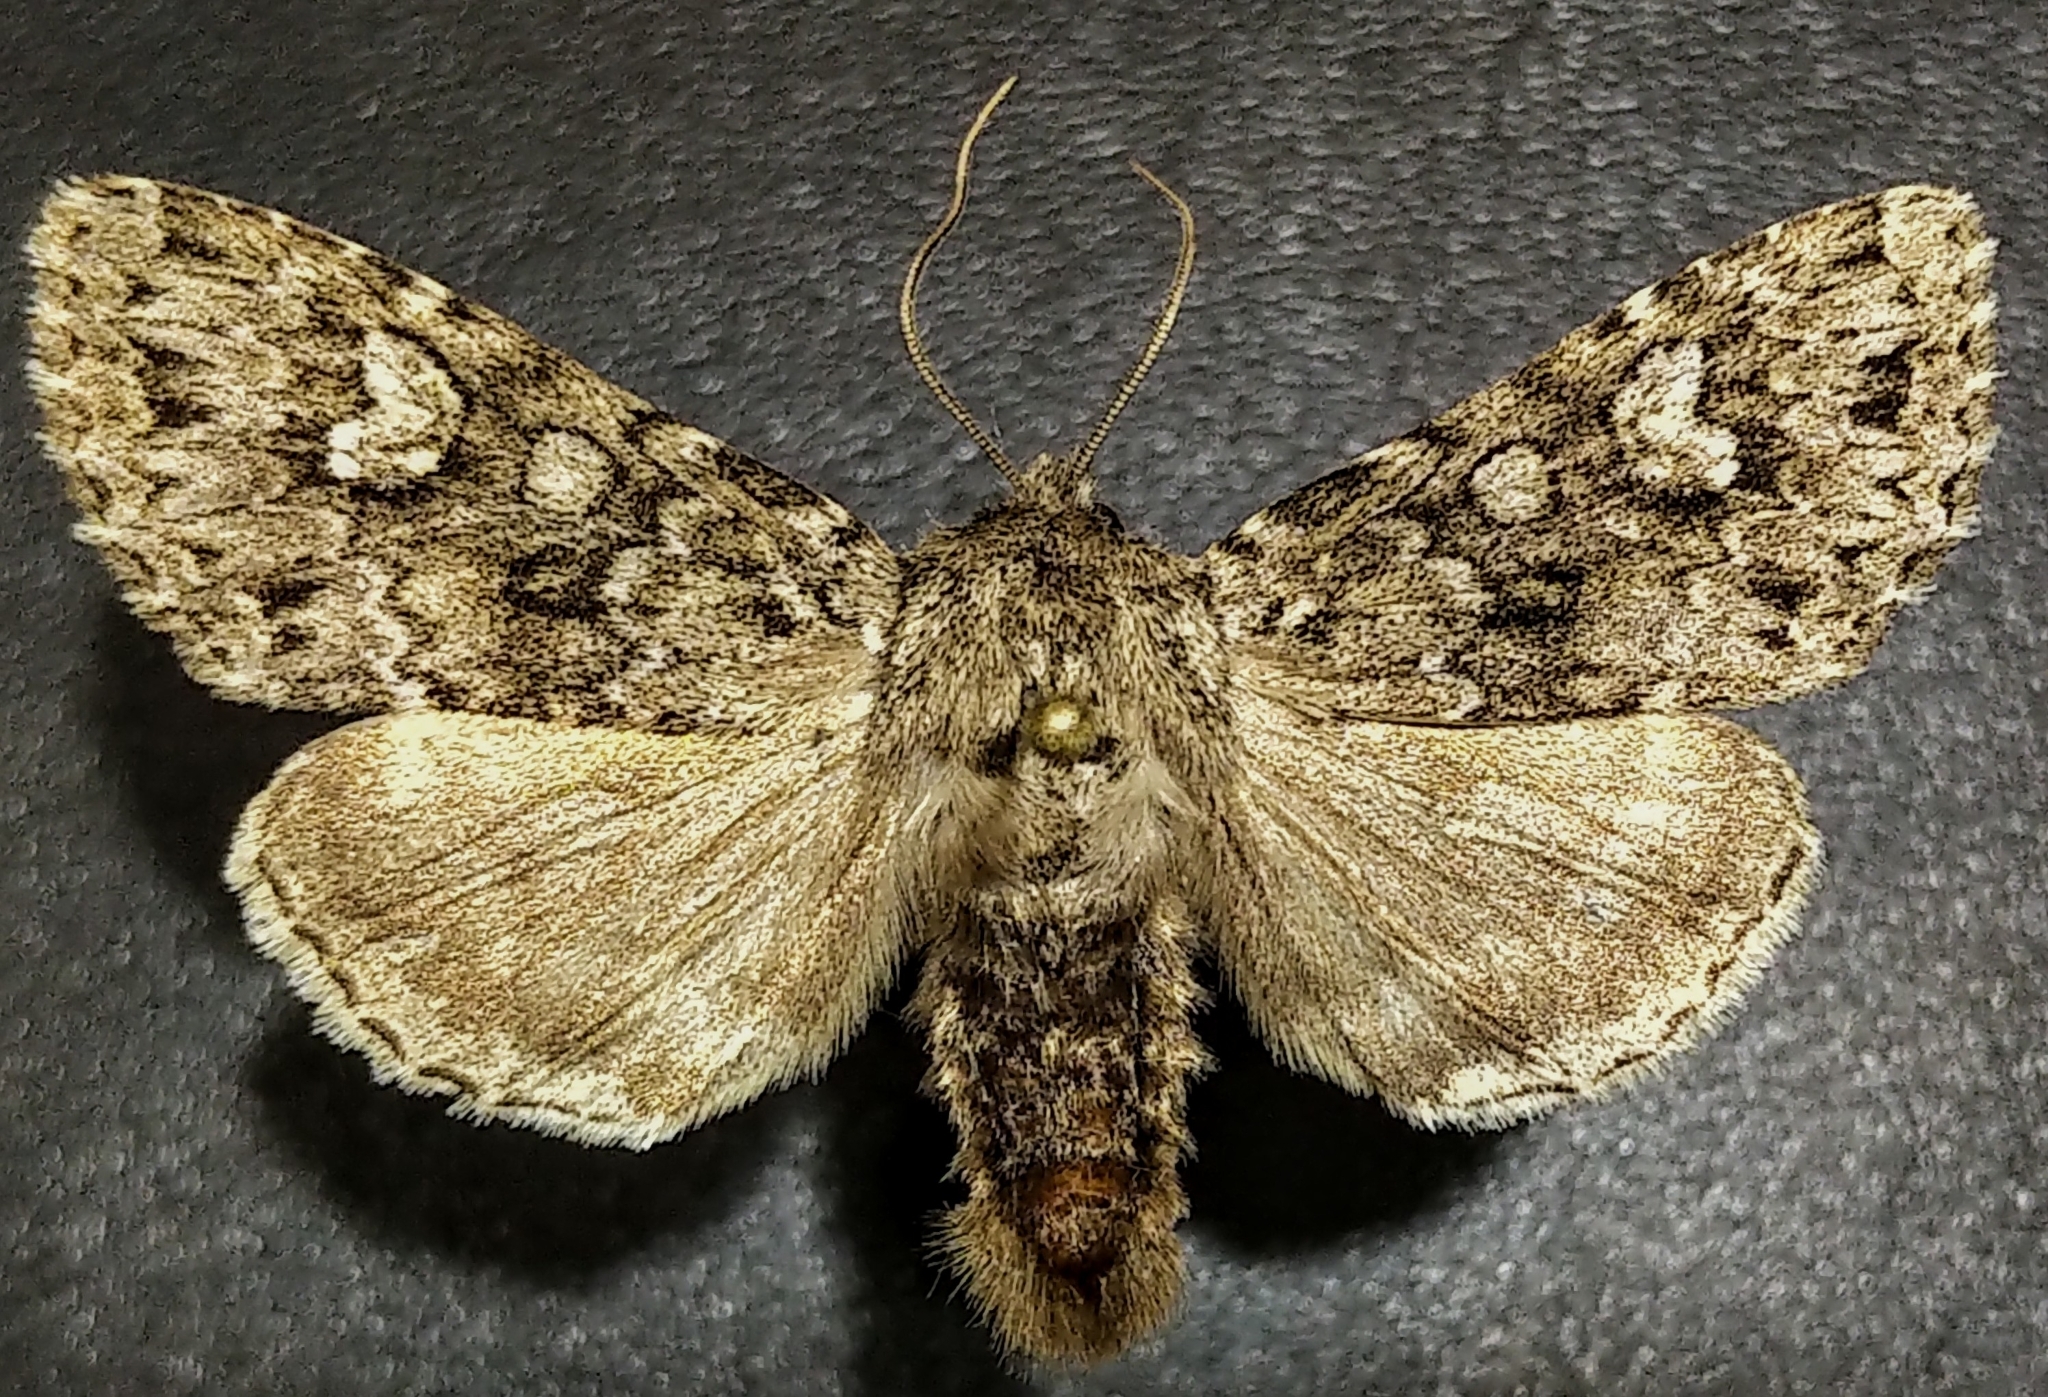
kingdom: Animalia
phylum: Arthropoda
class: Insecta
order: Lepidoptera
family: Noctuidae
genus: Polia
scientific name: Polia propodea
